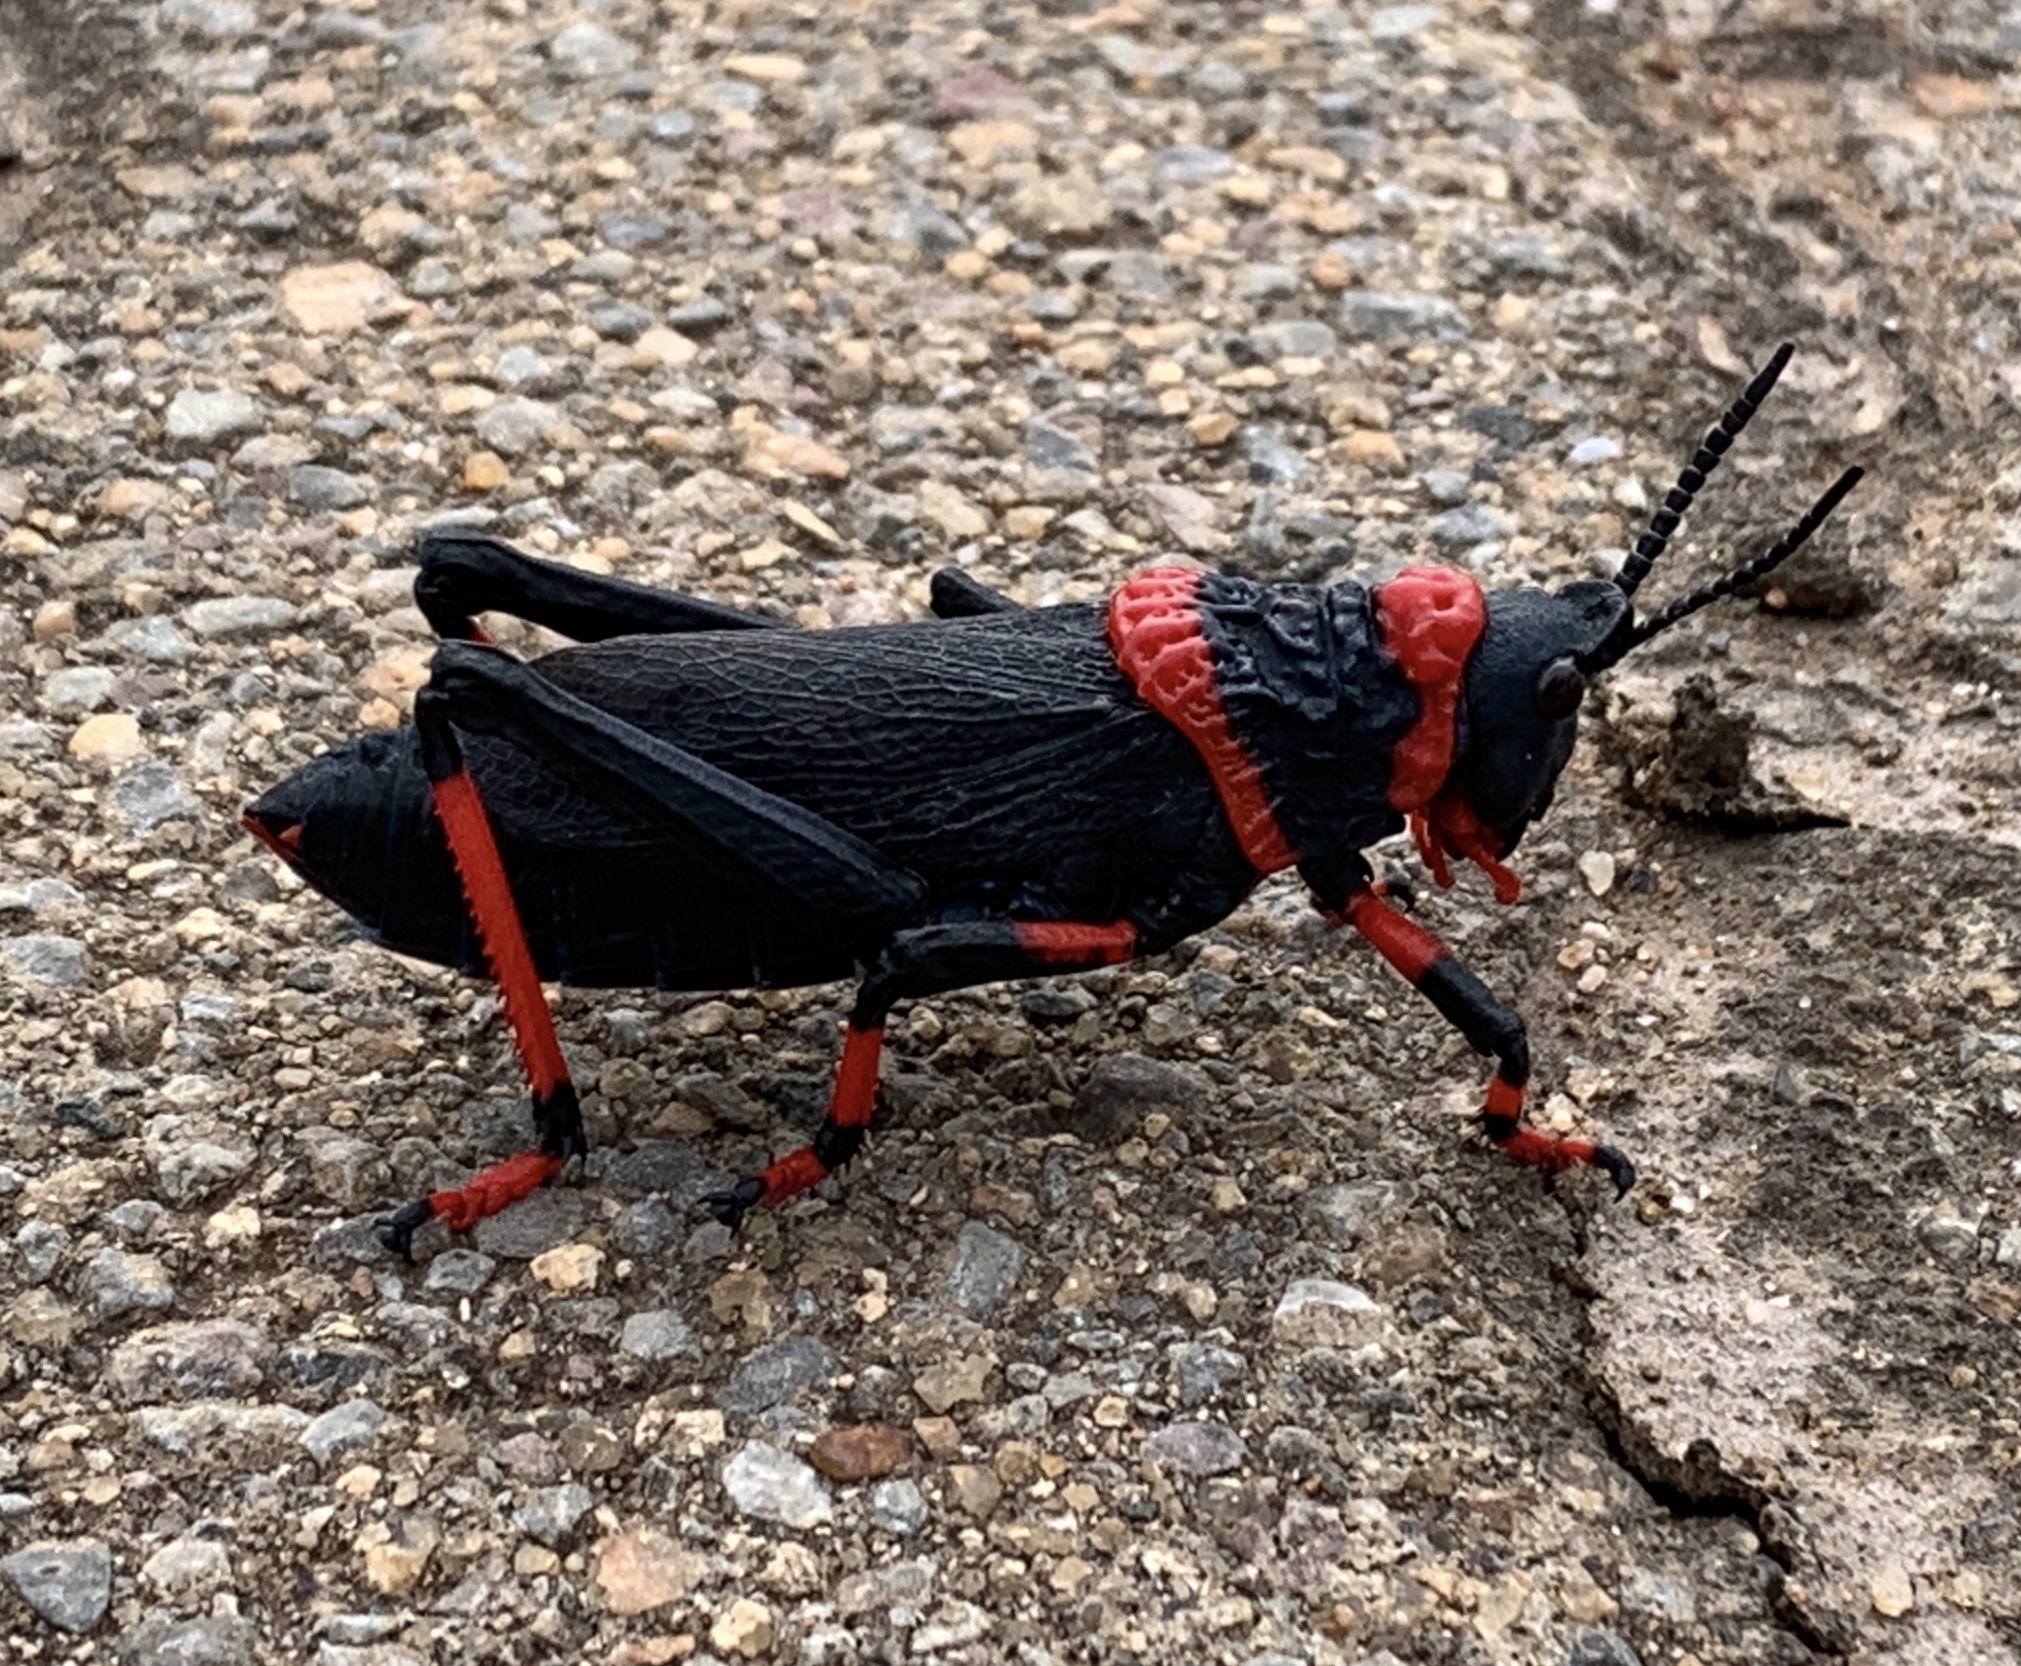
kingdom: Animalia
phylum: Arthropoda
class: Insecta
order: Orthoptera
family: Pyrgomorphidae
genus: Dictyophorus
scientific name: Dictyophorus spumans
